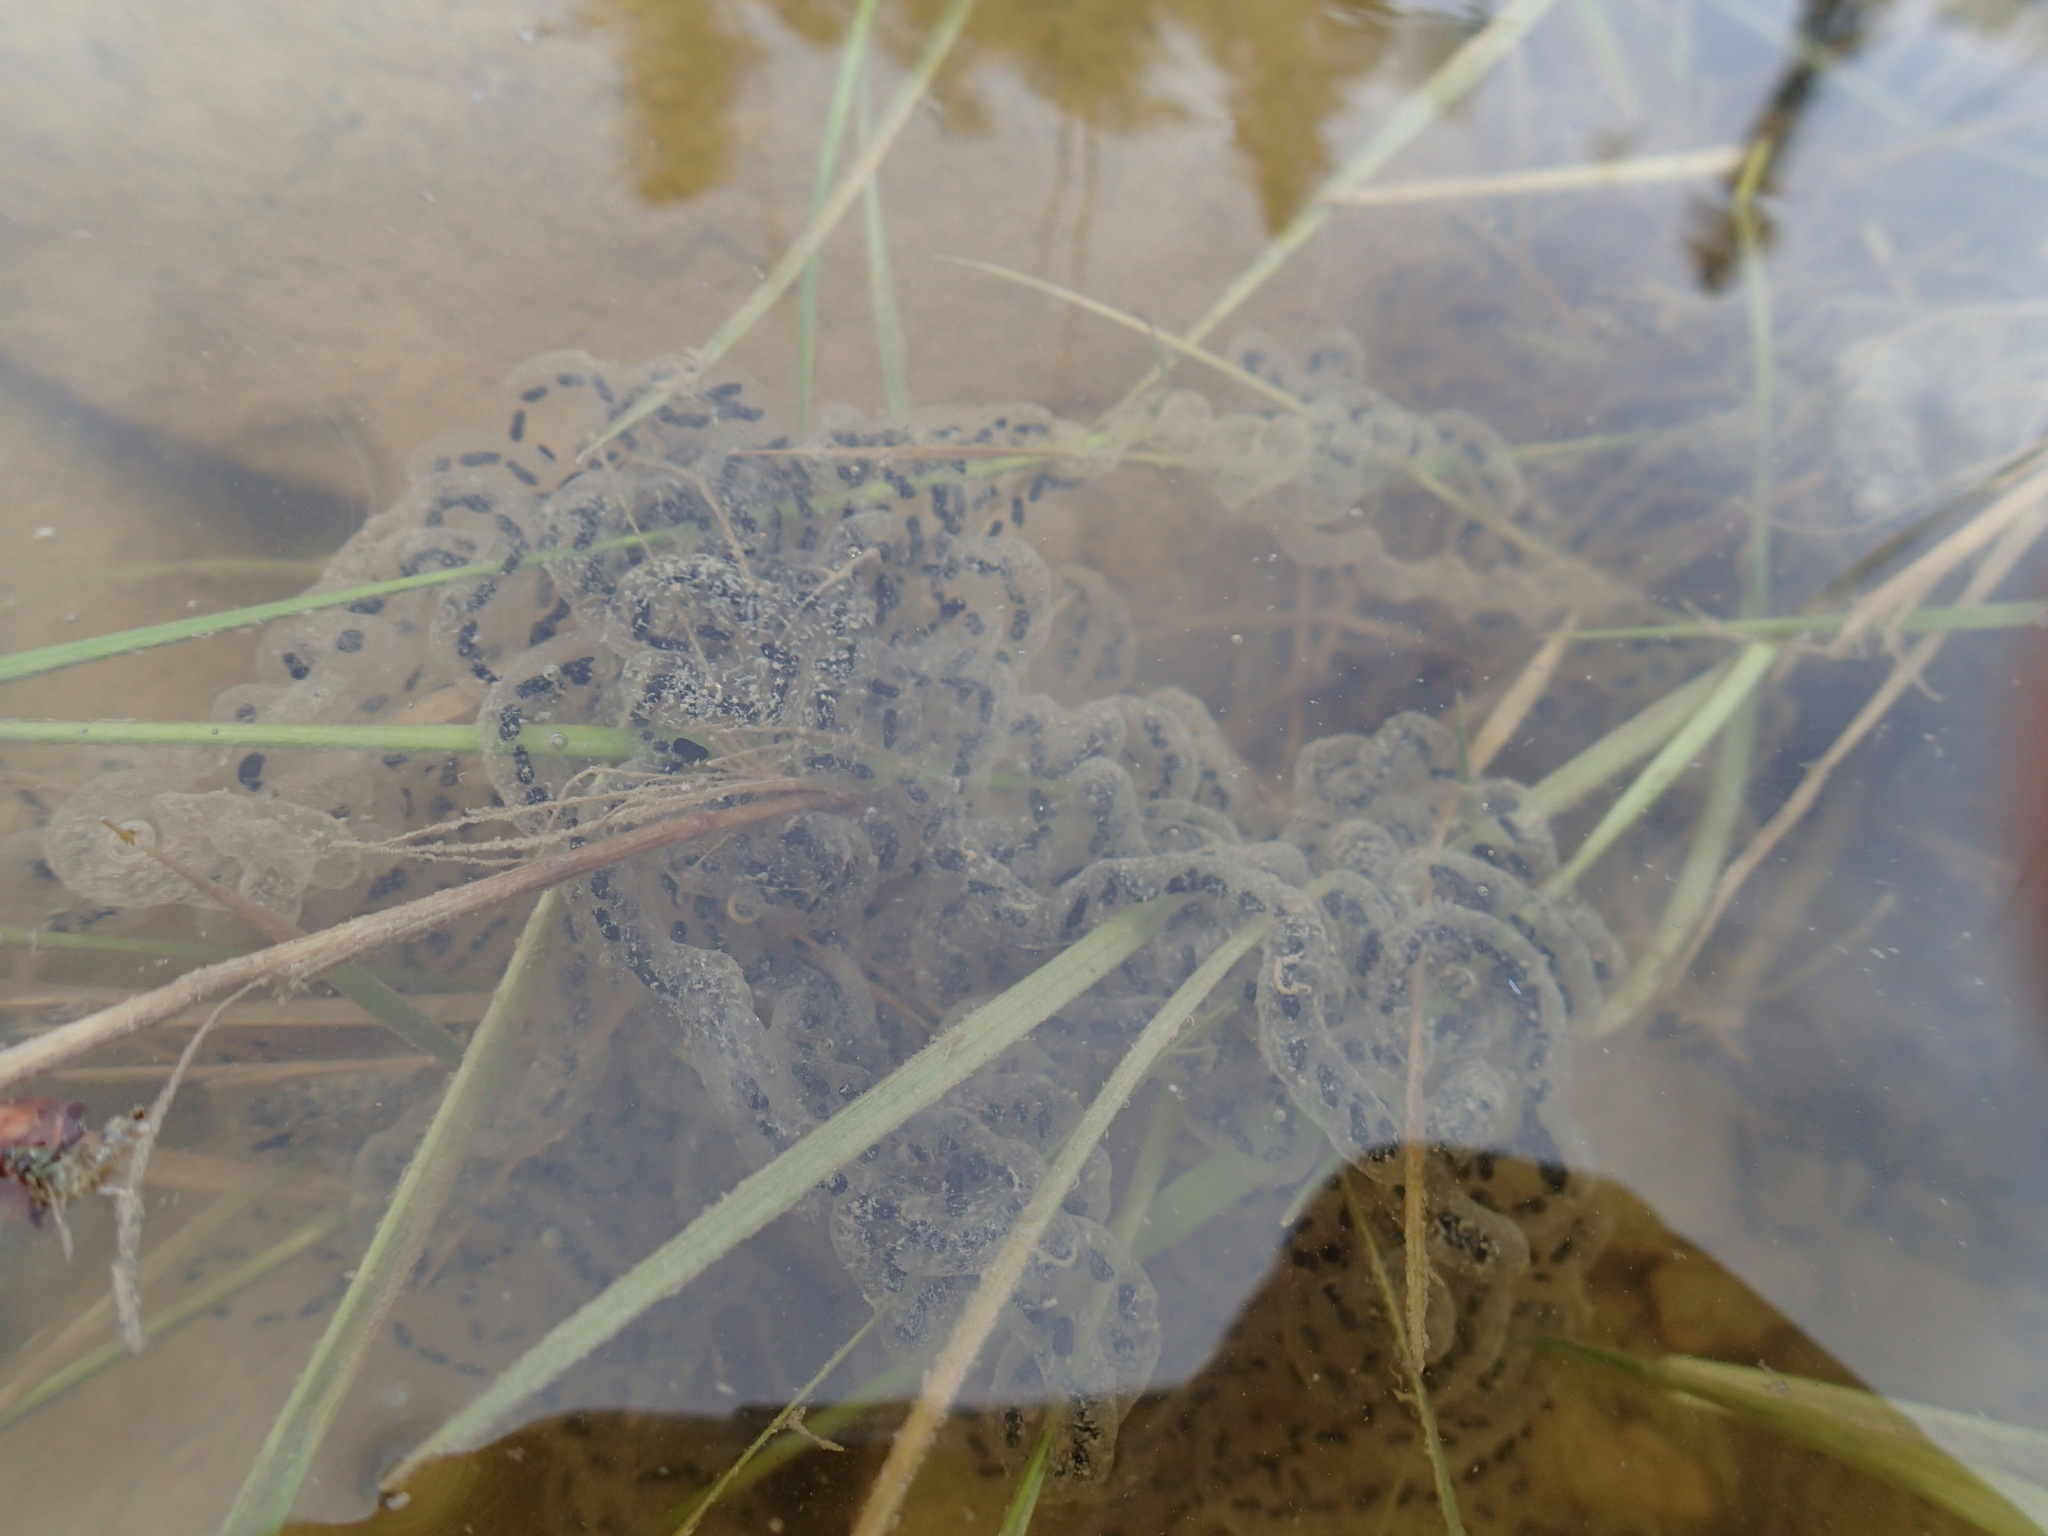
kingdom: Animalia
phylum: Chordata
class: Amphibia
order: Anura
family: Bufonidae
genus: Anaxyrus
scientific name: Anaxyrus americanus
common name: American toad
